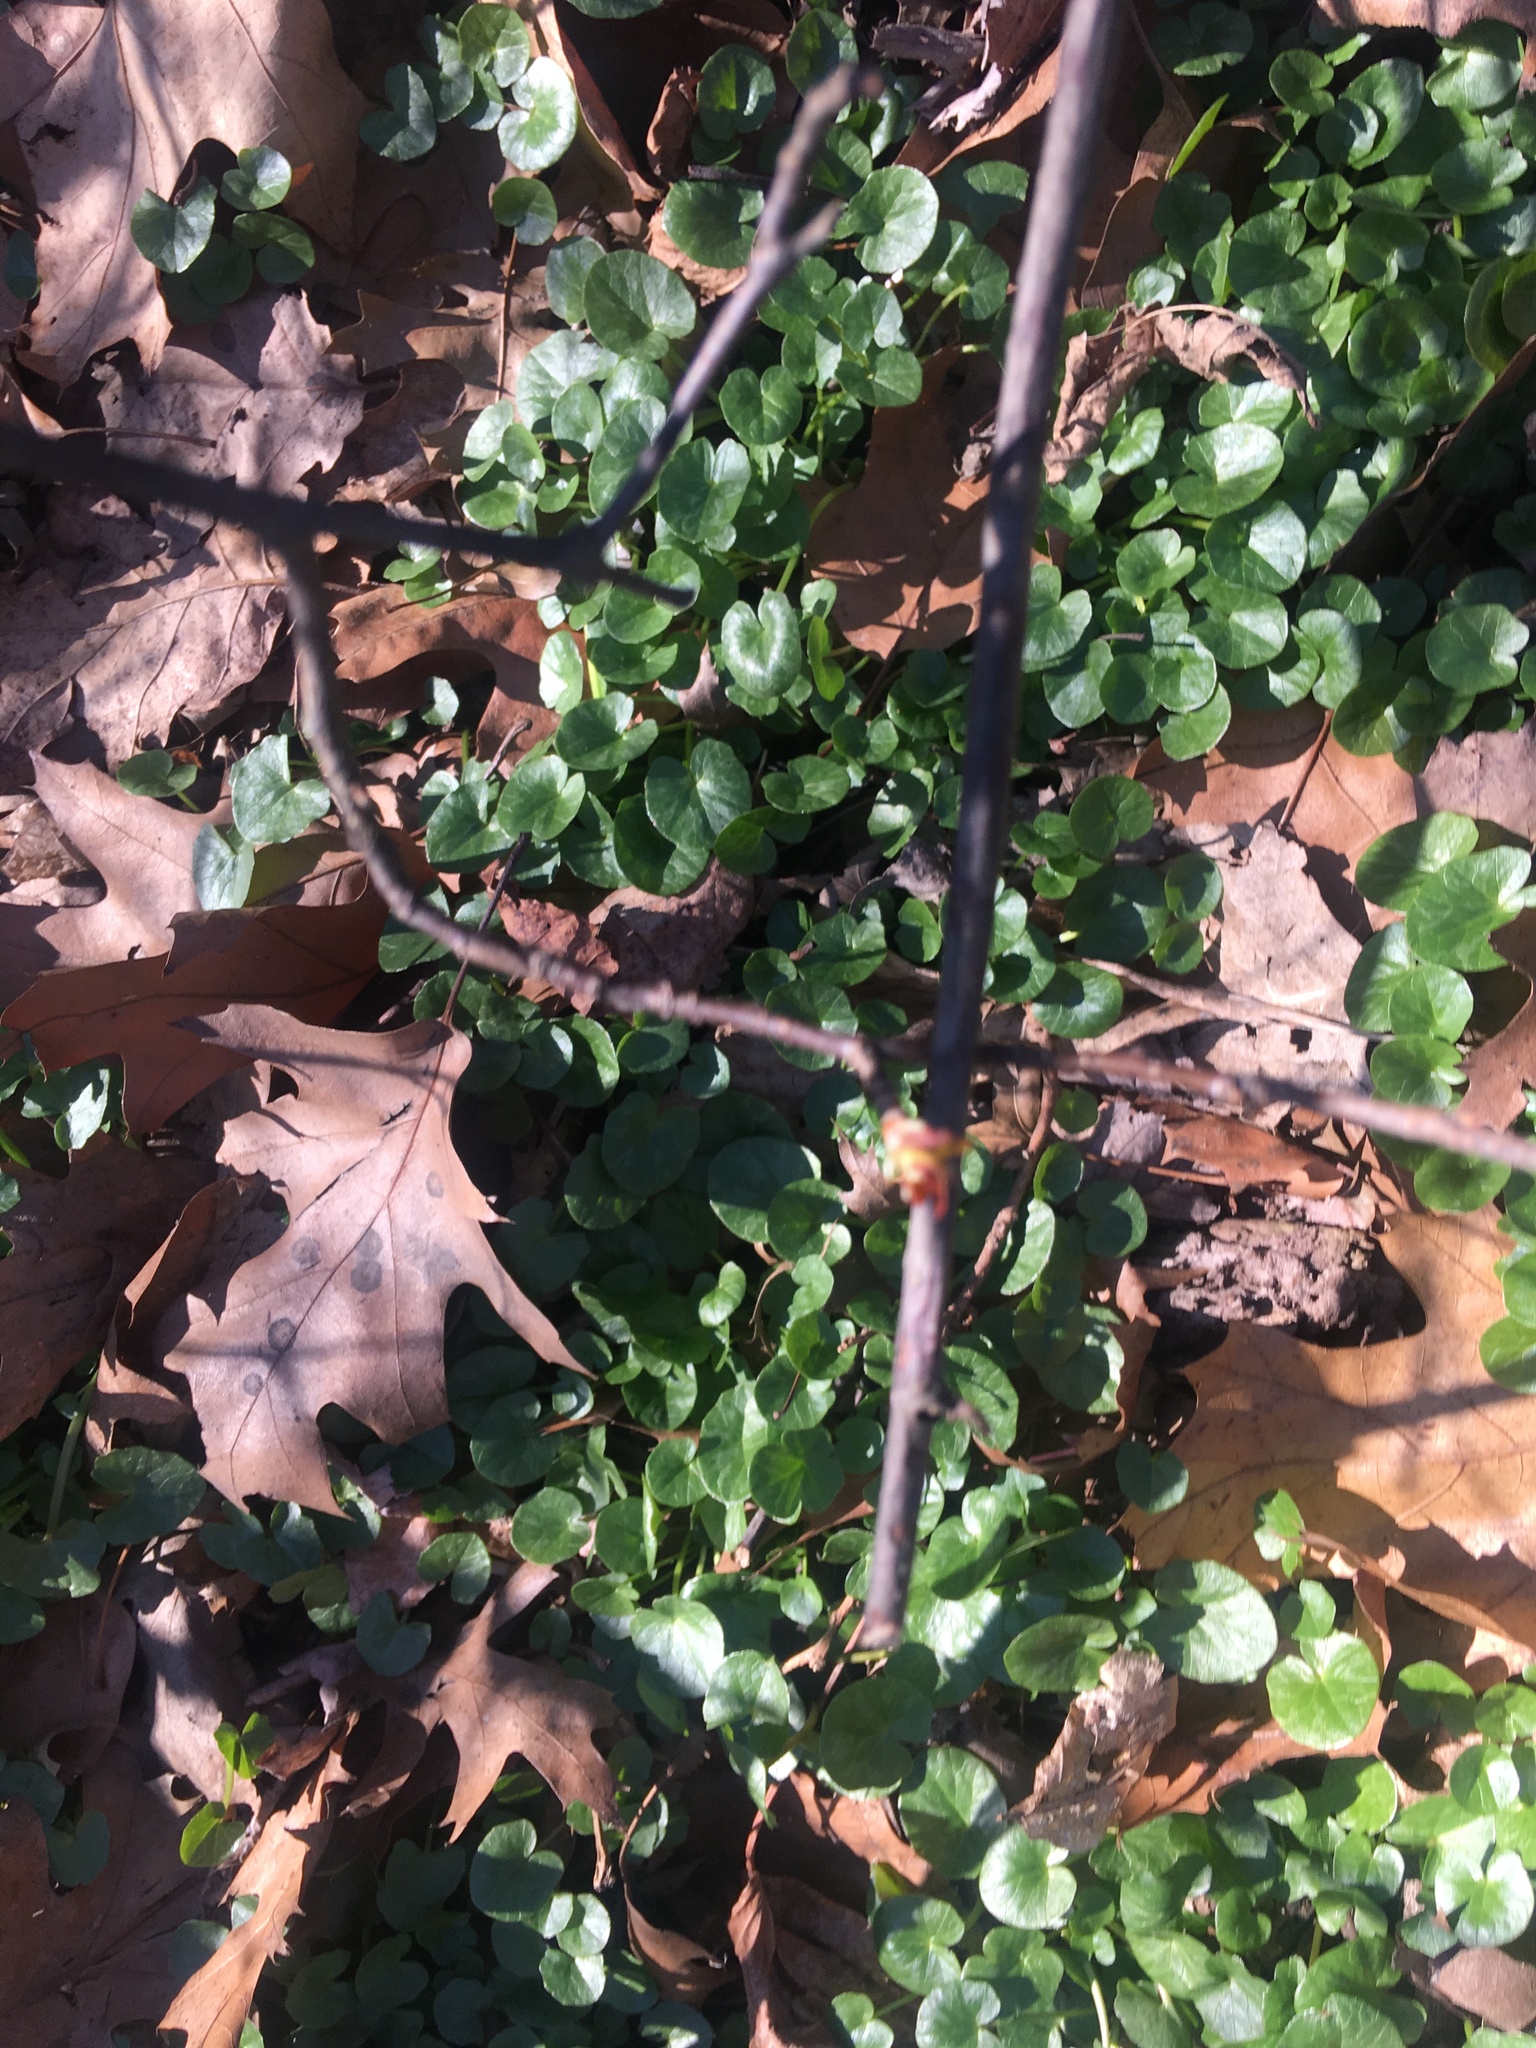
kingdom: Plantae
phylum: Tracheophyta
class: Magnoliopsida
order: Ranunculales
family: Ranunculaceae
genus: Ficaria
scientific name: Ficaria verna
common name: Lesser celandine
